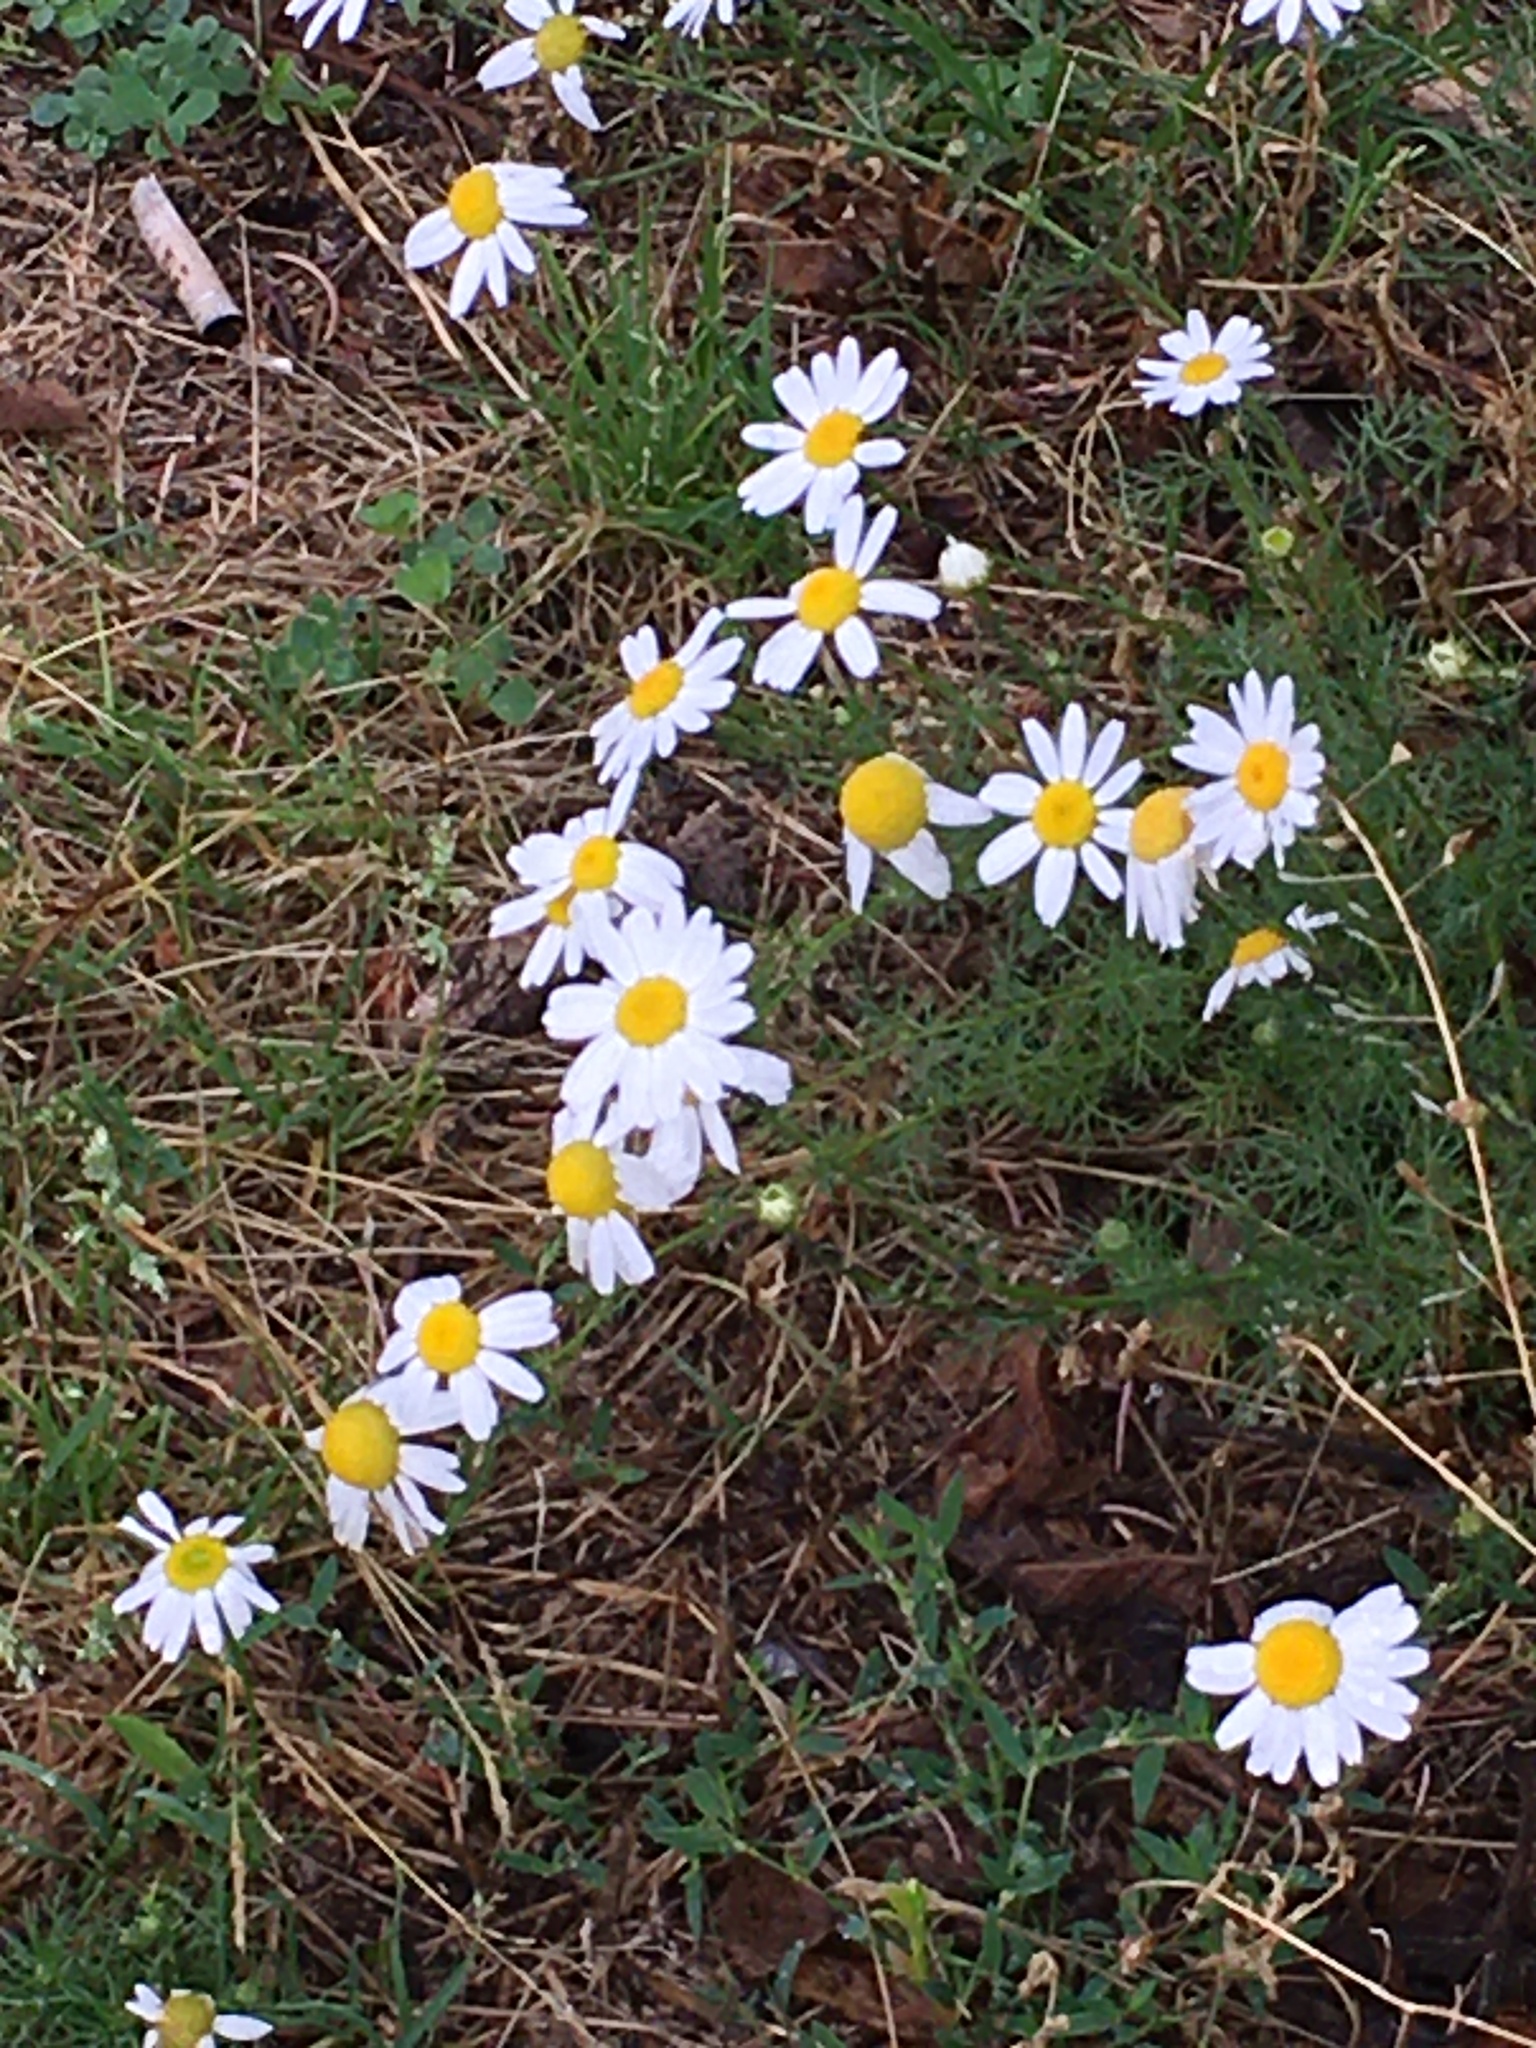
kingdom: Plantae
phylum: Tracheophyta
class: Magnoliopsida
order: Asterales
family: Asteraceae
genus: Tripleurospermum
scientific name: Tripleurospermum inodorum
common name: Scentless mayweed
